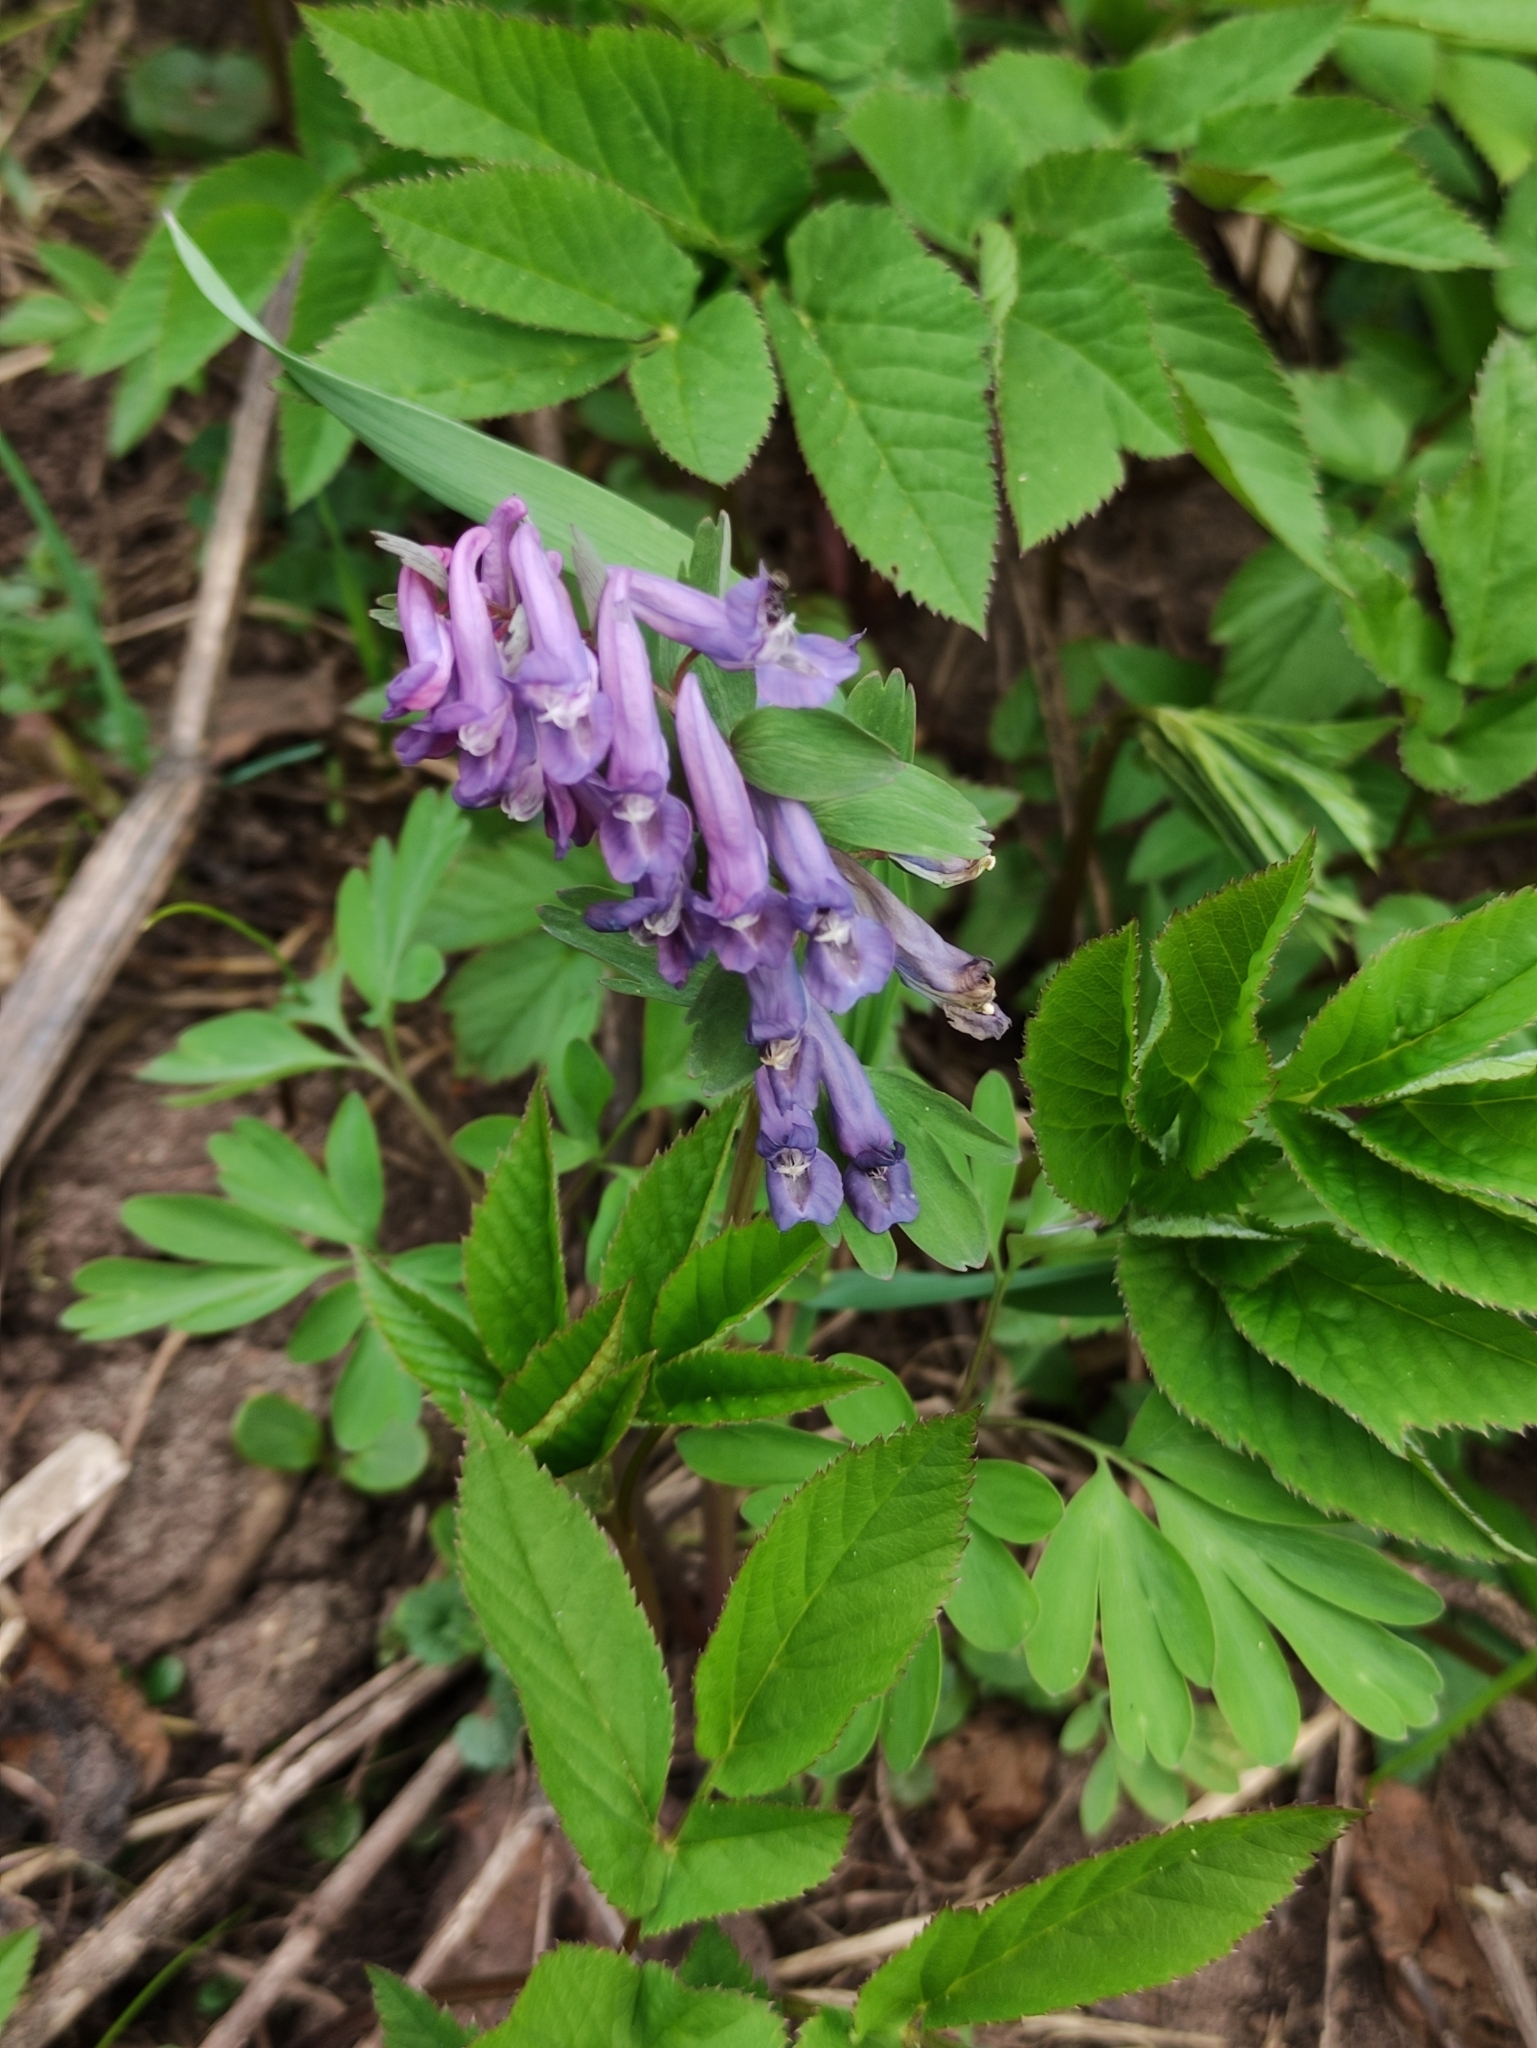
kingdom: Plantae
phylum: Tracheophyta
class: Magnoliopsida
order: Ranunculales
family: Papaveraceae
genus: Corydalis
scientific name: Corydalis solida
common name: Bird-in-a-bush
